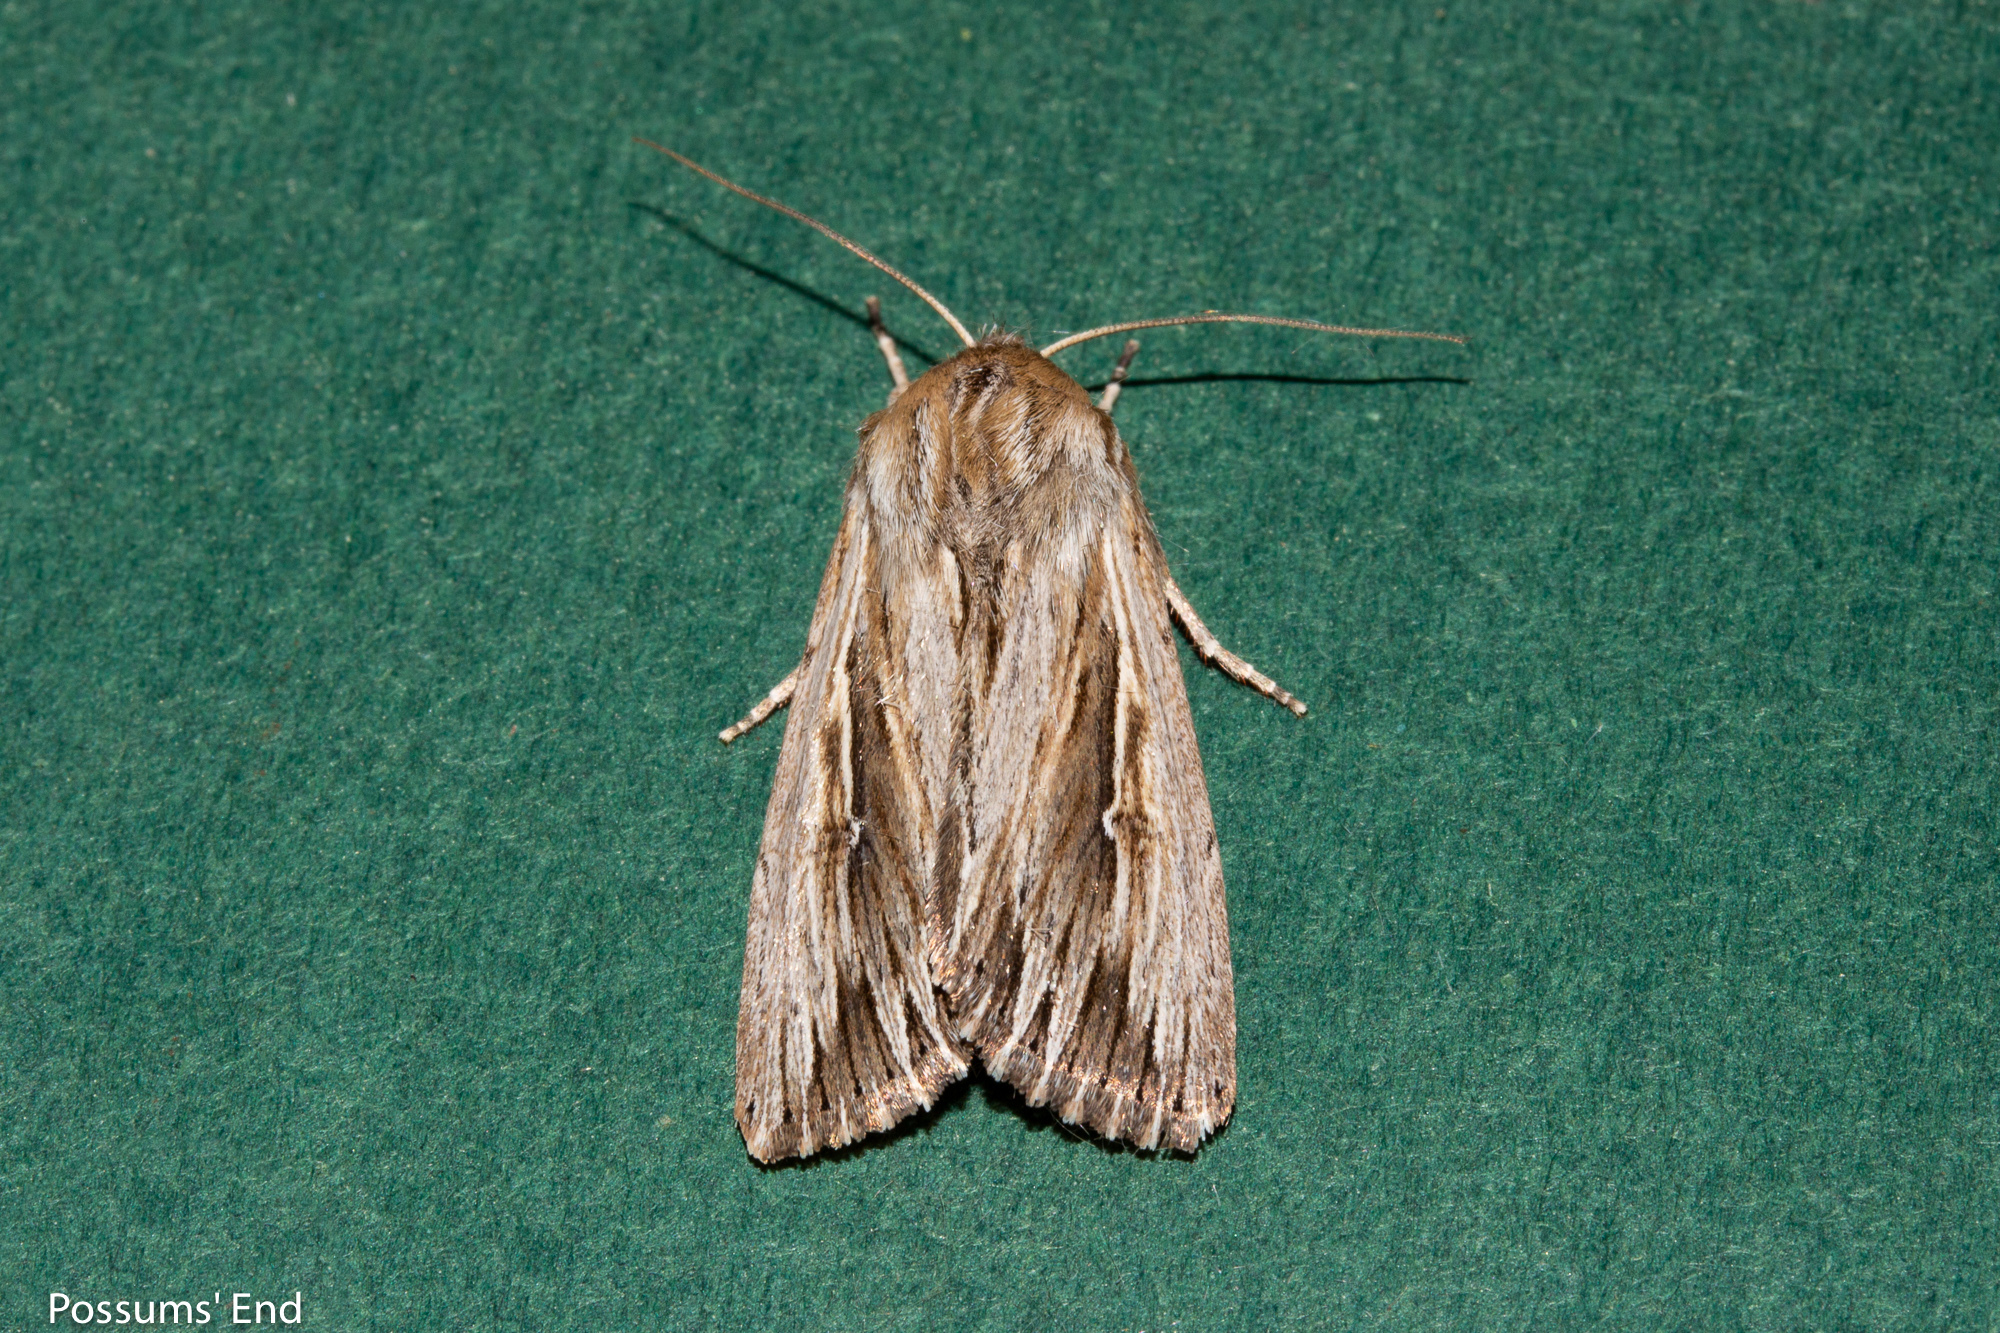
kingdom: Animalia
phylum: Arthropoda
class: Insecta
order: Lepidoptera
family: Noctuidae
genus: Persectania
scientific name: Persectania aversa
